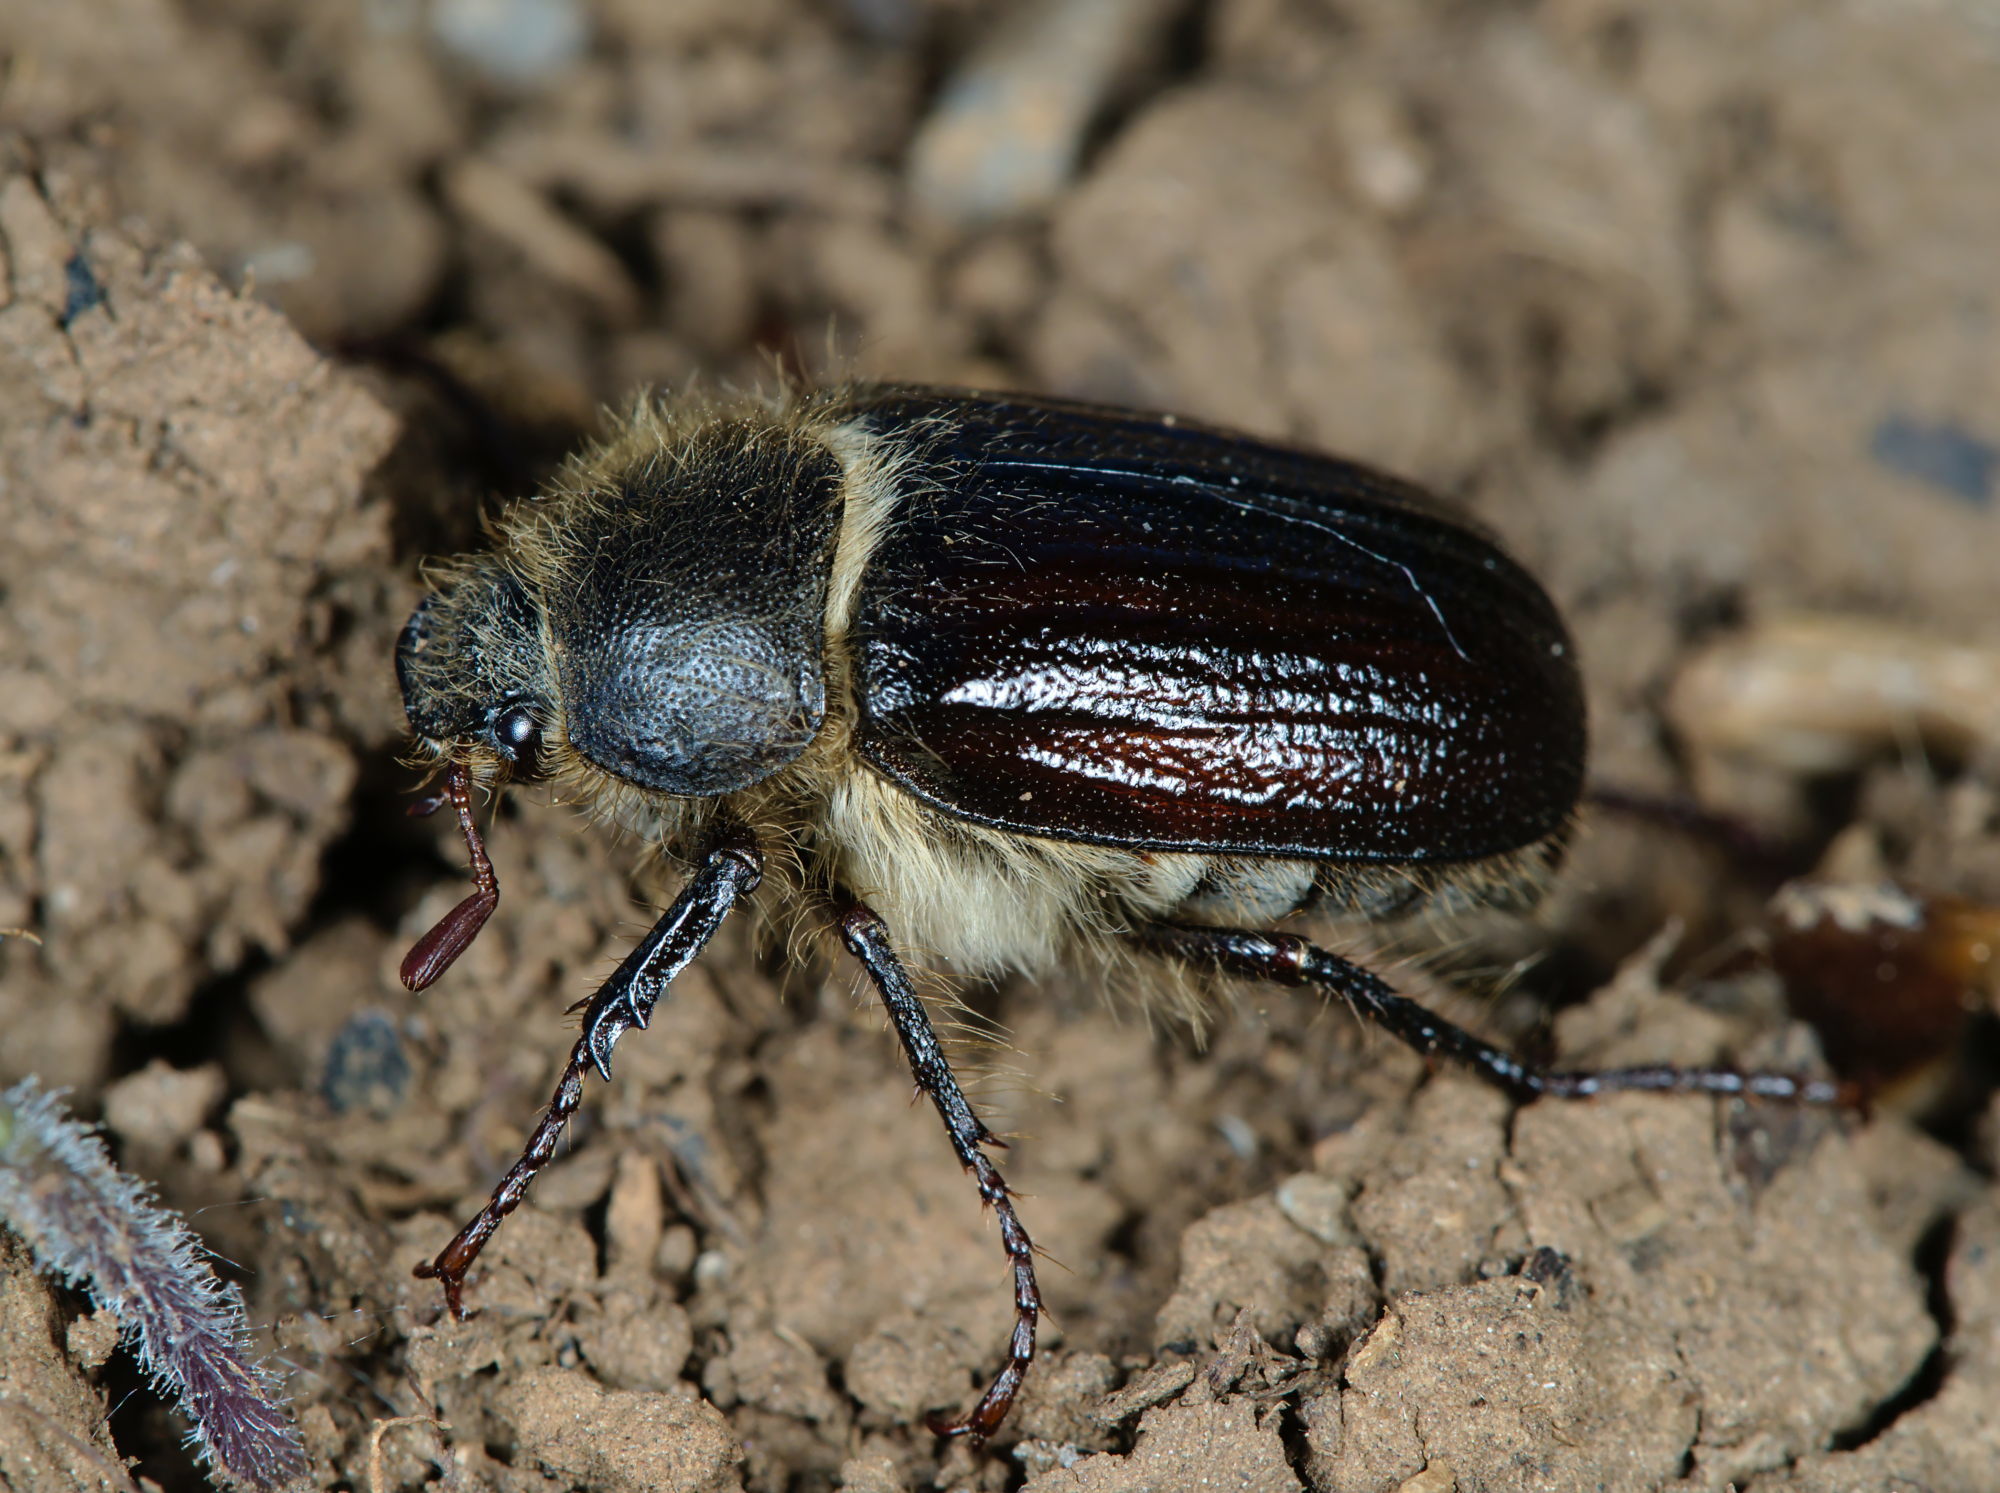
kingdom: Animalia
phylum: Arthropoda
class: Insecta
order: Coleoptera
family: Scarabaeidae
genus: Amphimallon
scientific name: Amphimallon atrum
